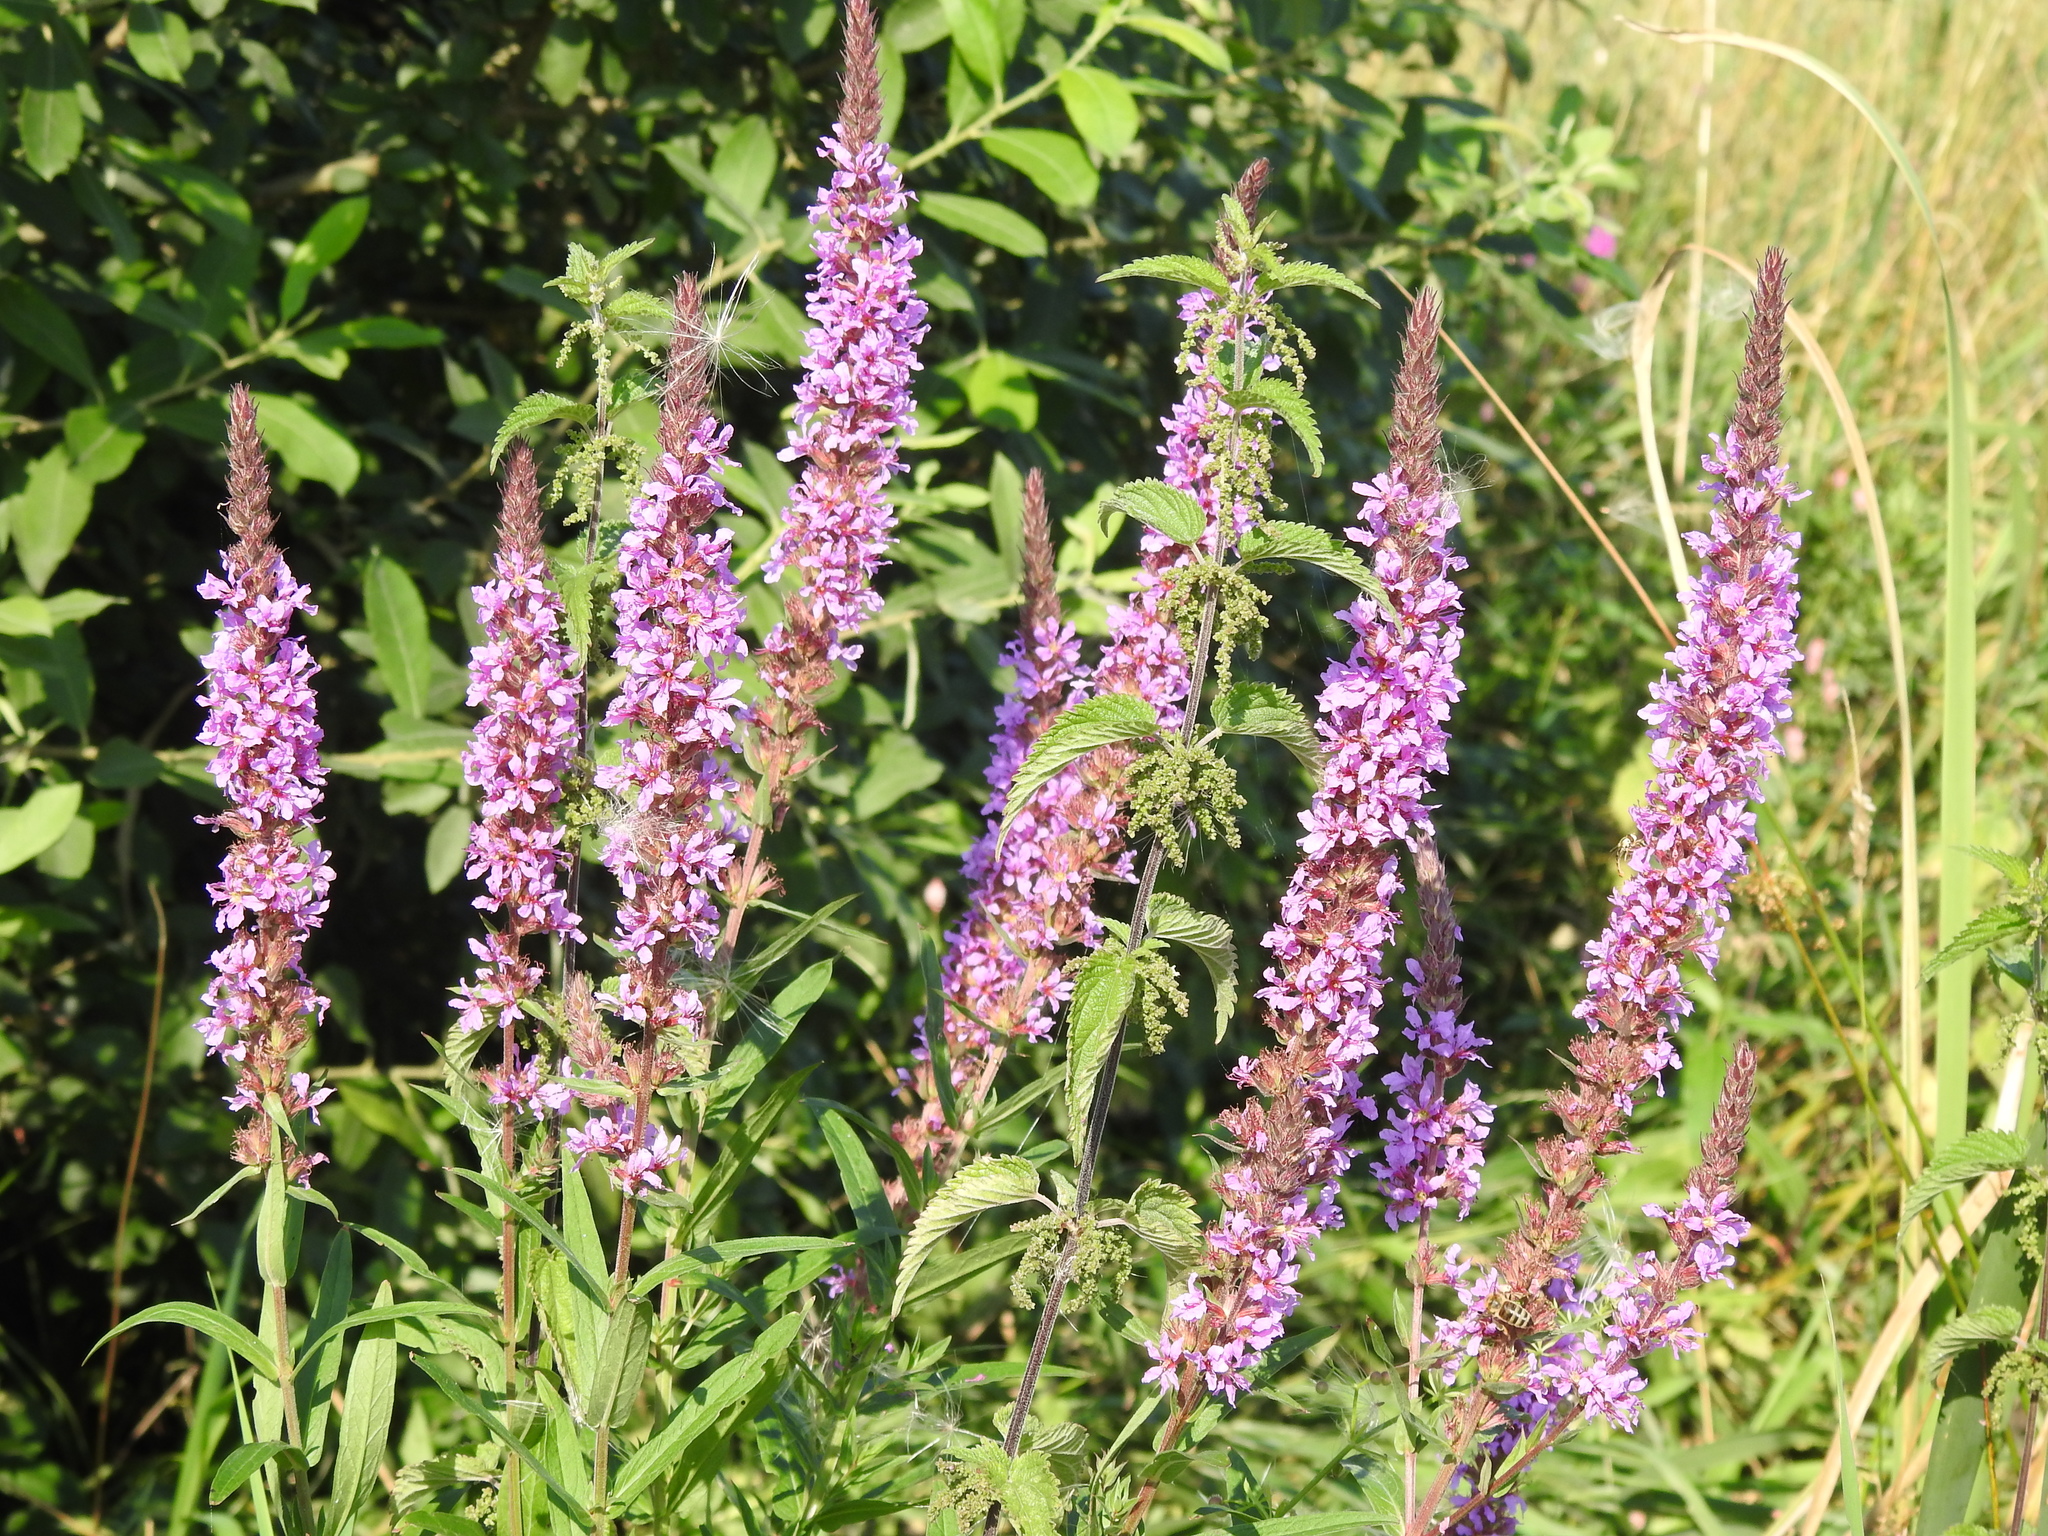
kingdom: Plantae
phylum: Tracheophyta
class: Magnoliopsida
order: Myrtales
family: Lythraceae
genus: Lythrum
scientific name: Lythrum salicaria
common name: Purple loosestrife
